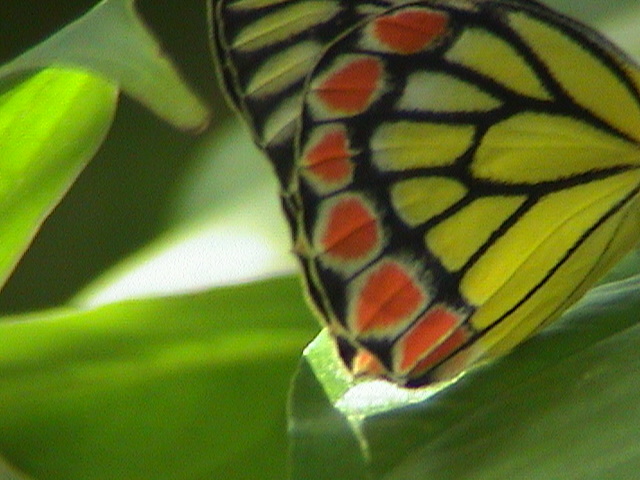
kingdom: Animalia
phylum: Arthropoda
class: Insecta
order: Lepidoptera
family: Pieridae
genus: Delias
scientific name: Delias eucharis
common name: Common jezebel
